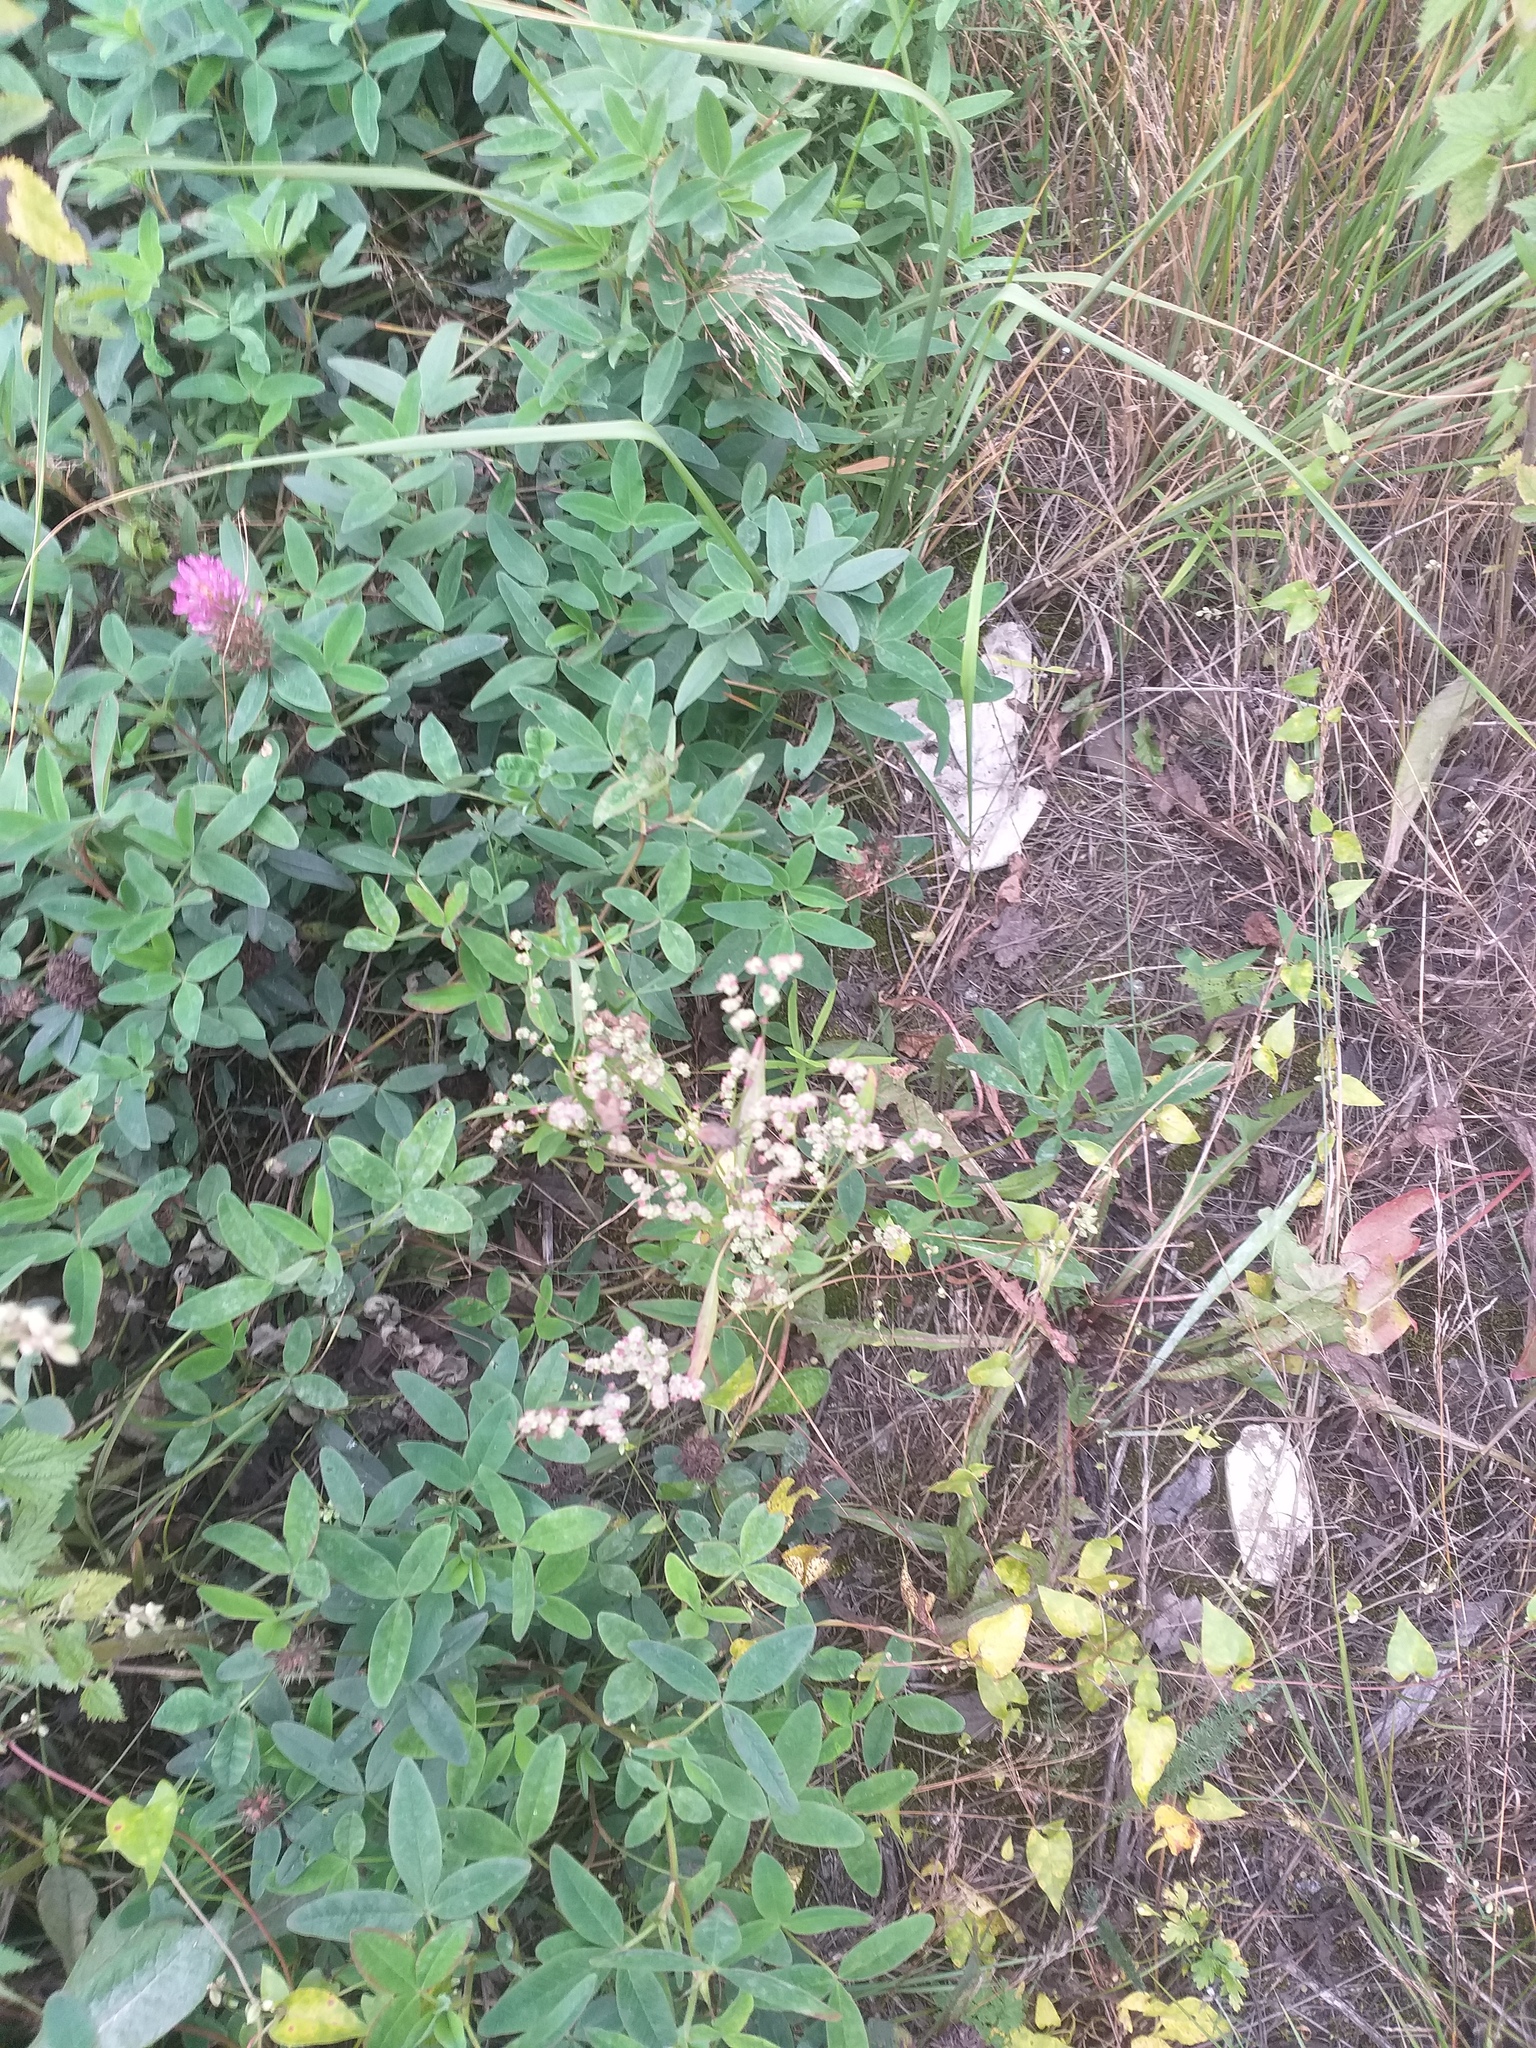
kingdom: Plantae
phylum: Tracheophyta
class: Magnoliopsida
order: Caryophyllales
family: Amaranthaceae
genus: Chenopodium
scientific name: Chenopodium album
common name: Fat-hen
